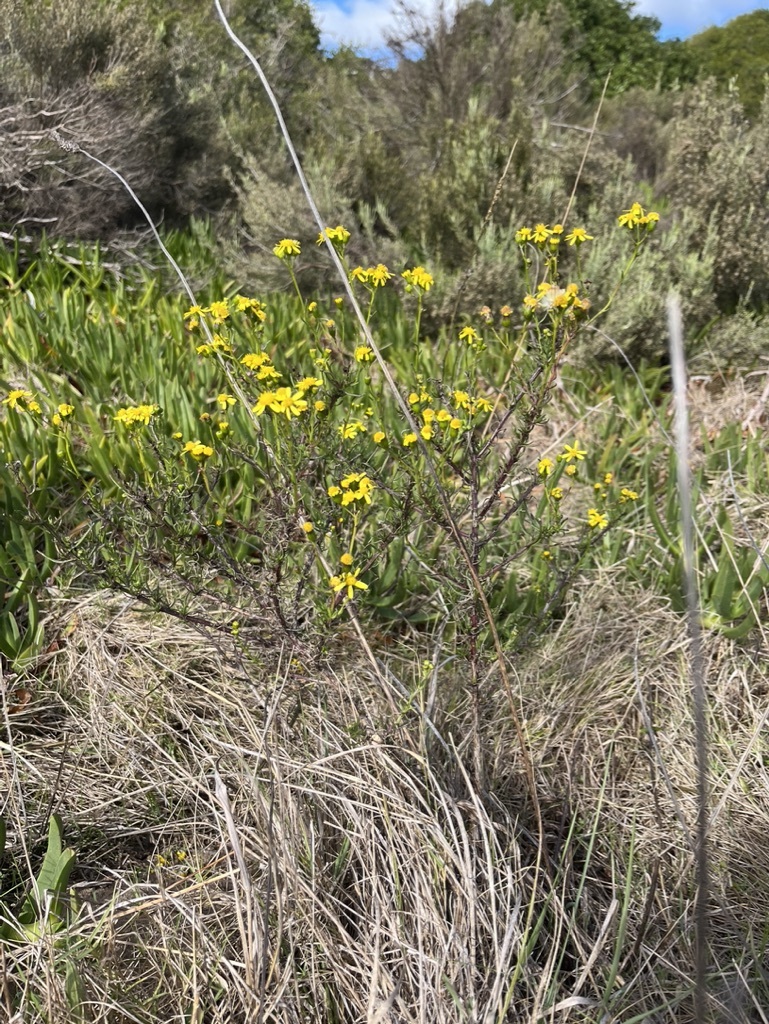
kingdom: Plantae
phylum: Tracheophyta
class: Magnoliopsida
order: Asterales
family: Asteraceae
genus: Senecio
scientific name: Senecio burchellii
